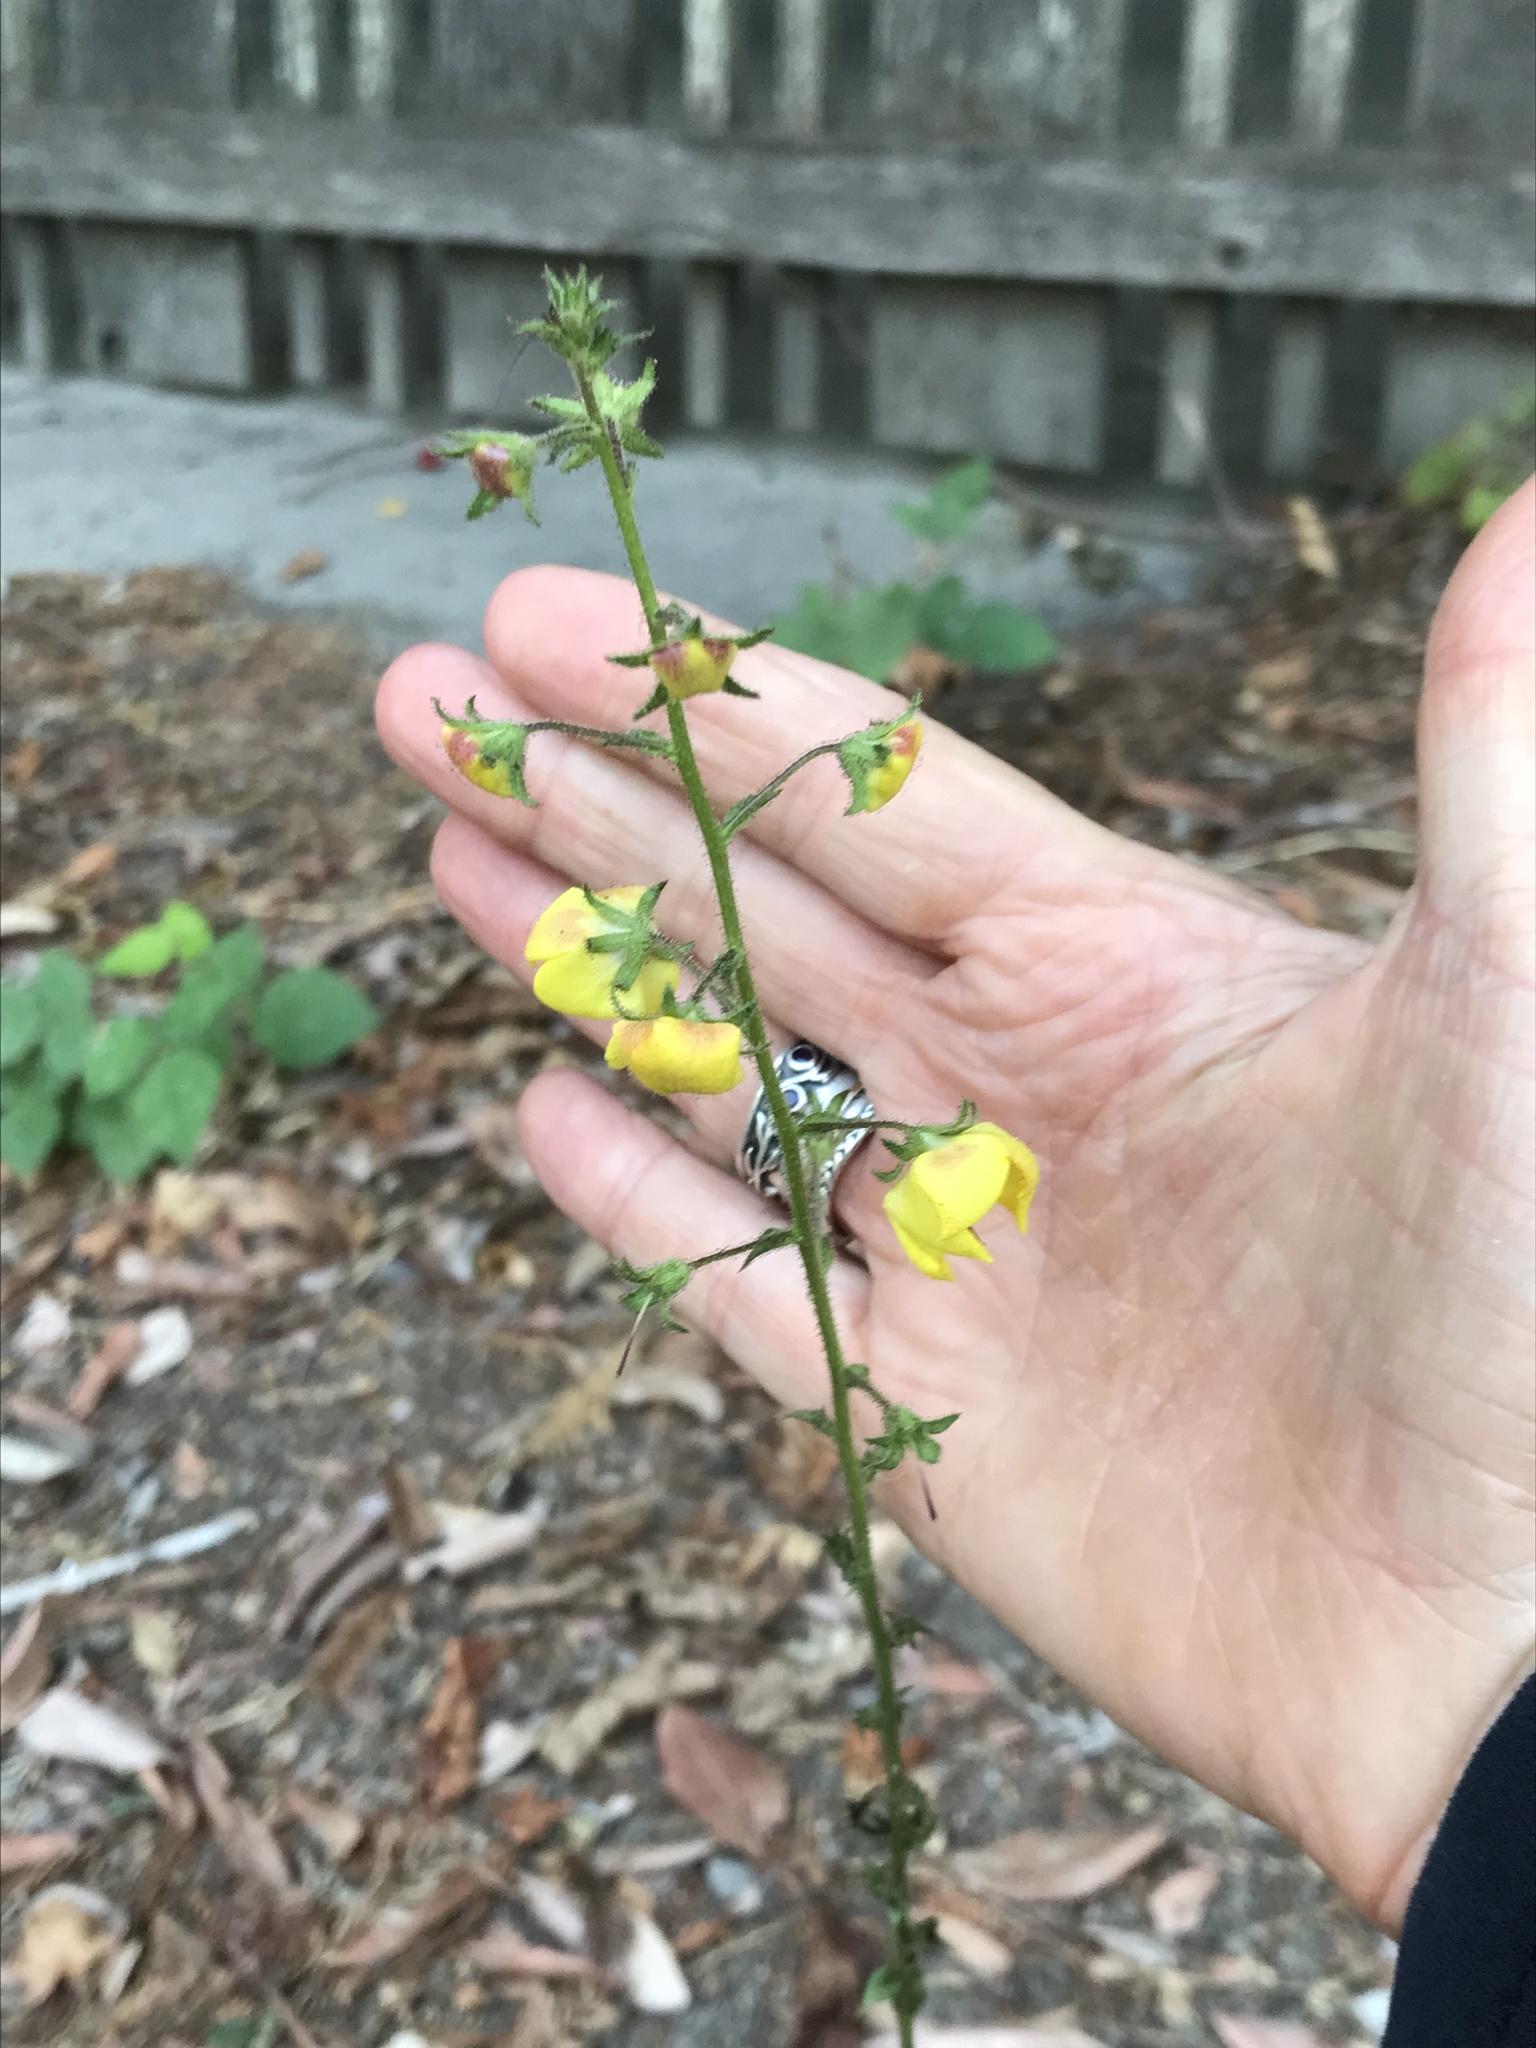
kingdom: Plantae
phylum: Tracheophyta
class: Magnoliopsida
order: Lamiales
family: Scrophulariaceae
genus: Verbascum
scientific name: Verbascum blattaria
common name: Moth mullein
